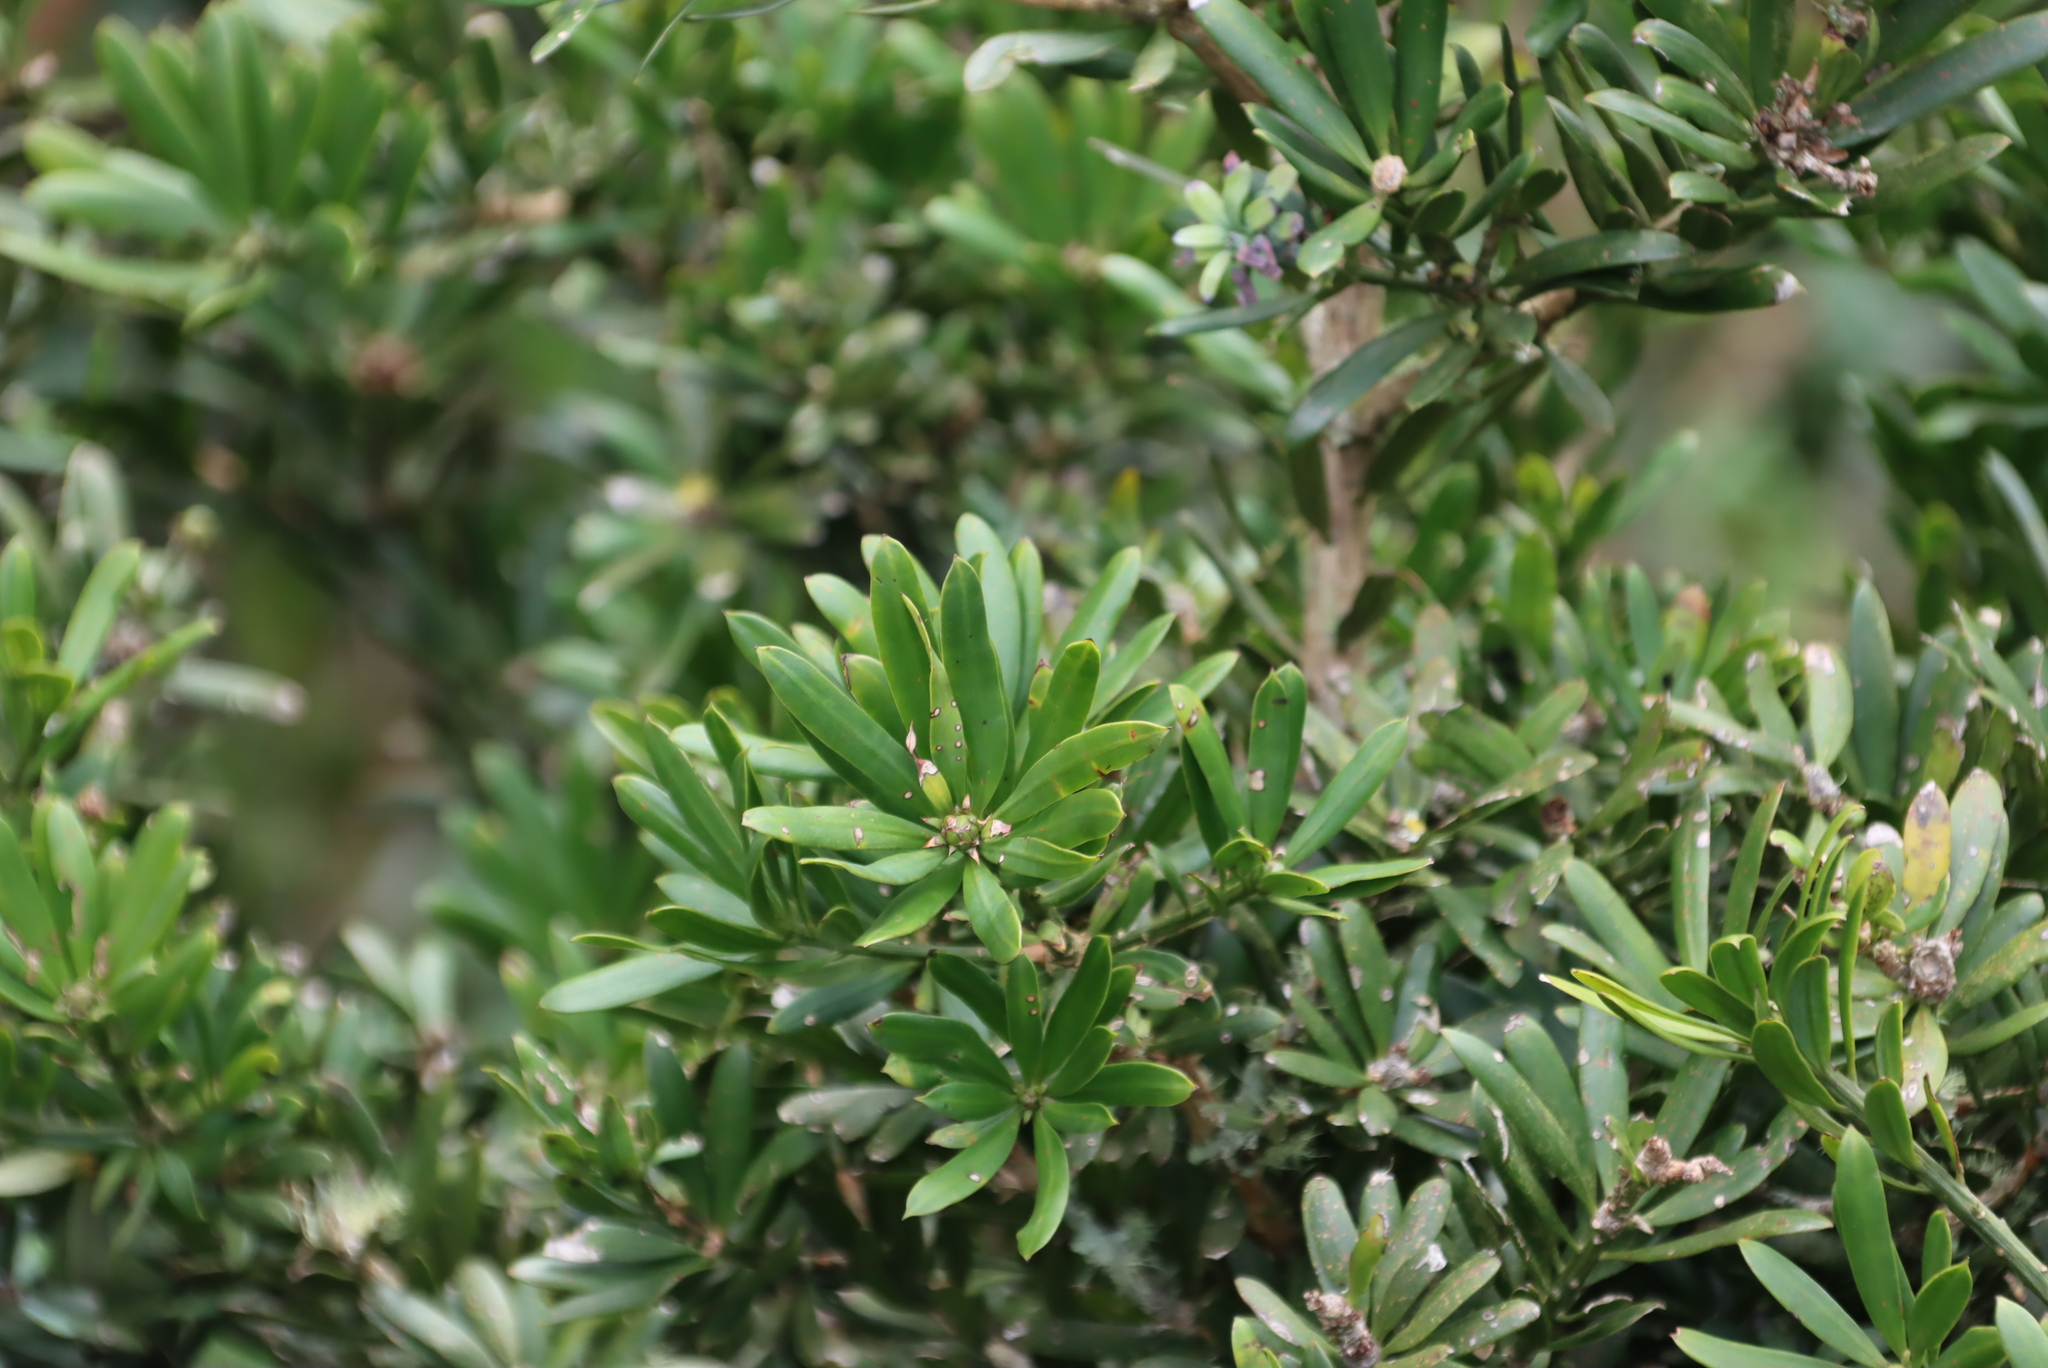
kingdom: Plantae
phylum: Tracheophyta
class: Pinopsida
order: Pinales
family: Podocarpaceae
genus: Podocarpus
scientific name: Podocarpus latifolius
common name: True yellowwood
